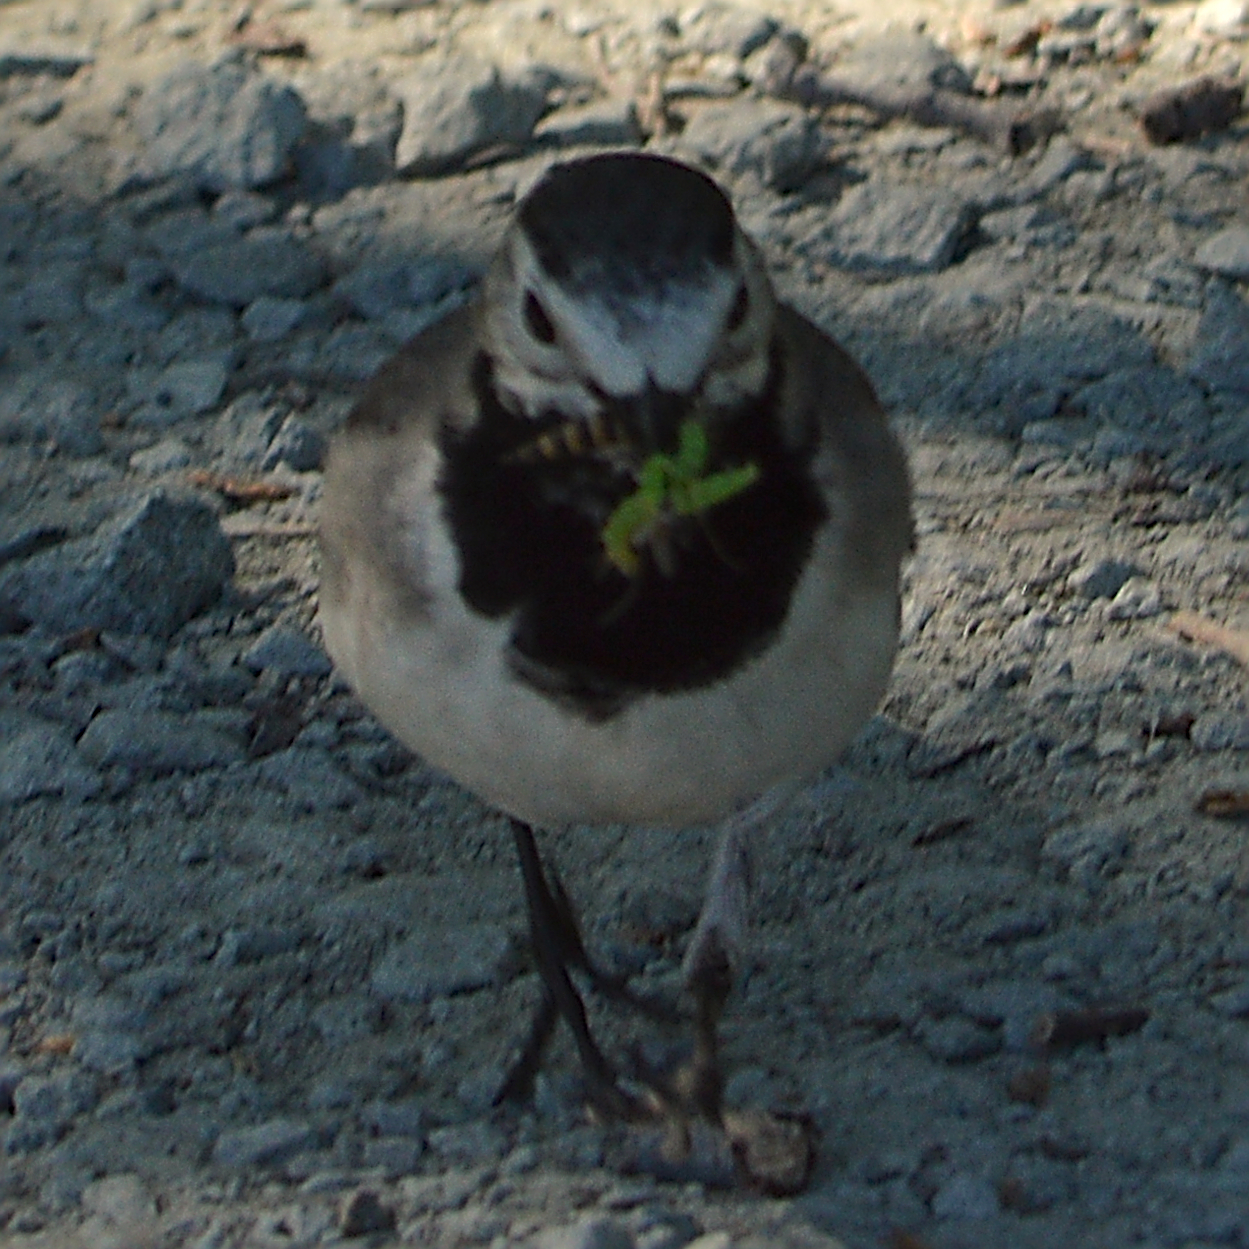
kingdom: Animalia
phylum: Chordata
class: Aves
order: Passeriformes
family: Motacillidae
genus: Motacilla
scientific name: Motacilla alba
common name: White wagtail
